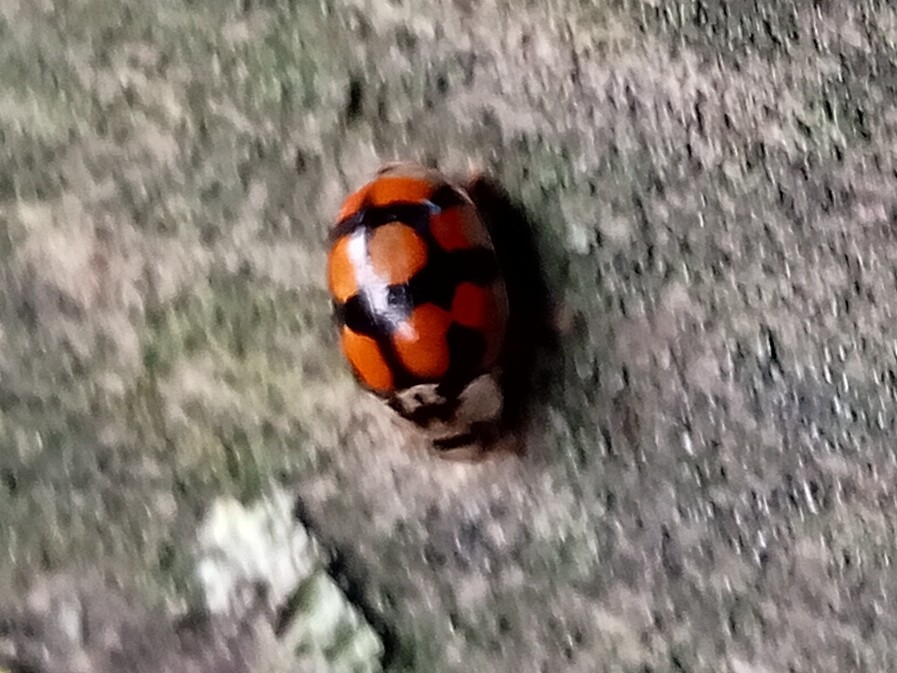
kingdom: Animalia
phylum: Arthropoda
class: Insecta
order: Coleoptera
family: Coccinellidae
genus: Adalia
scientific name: Adalia decempunctata
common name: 10-spot ladybird
